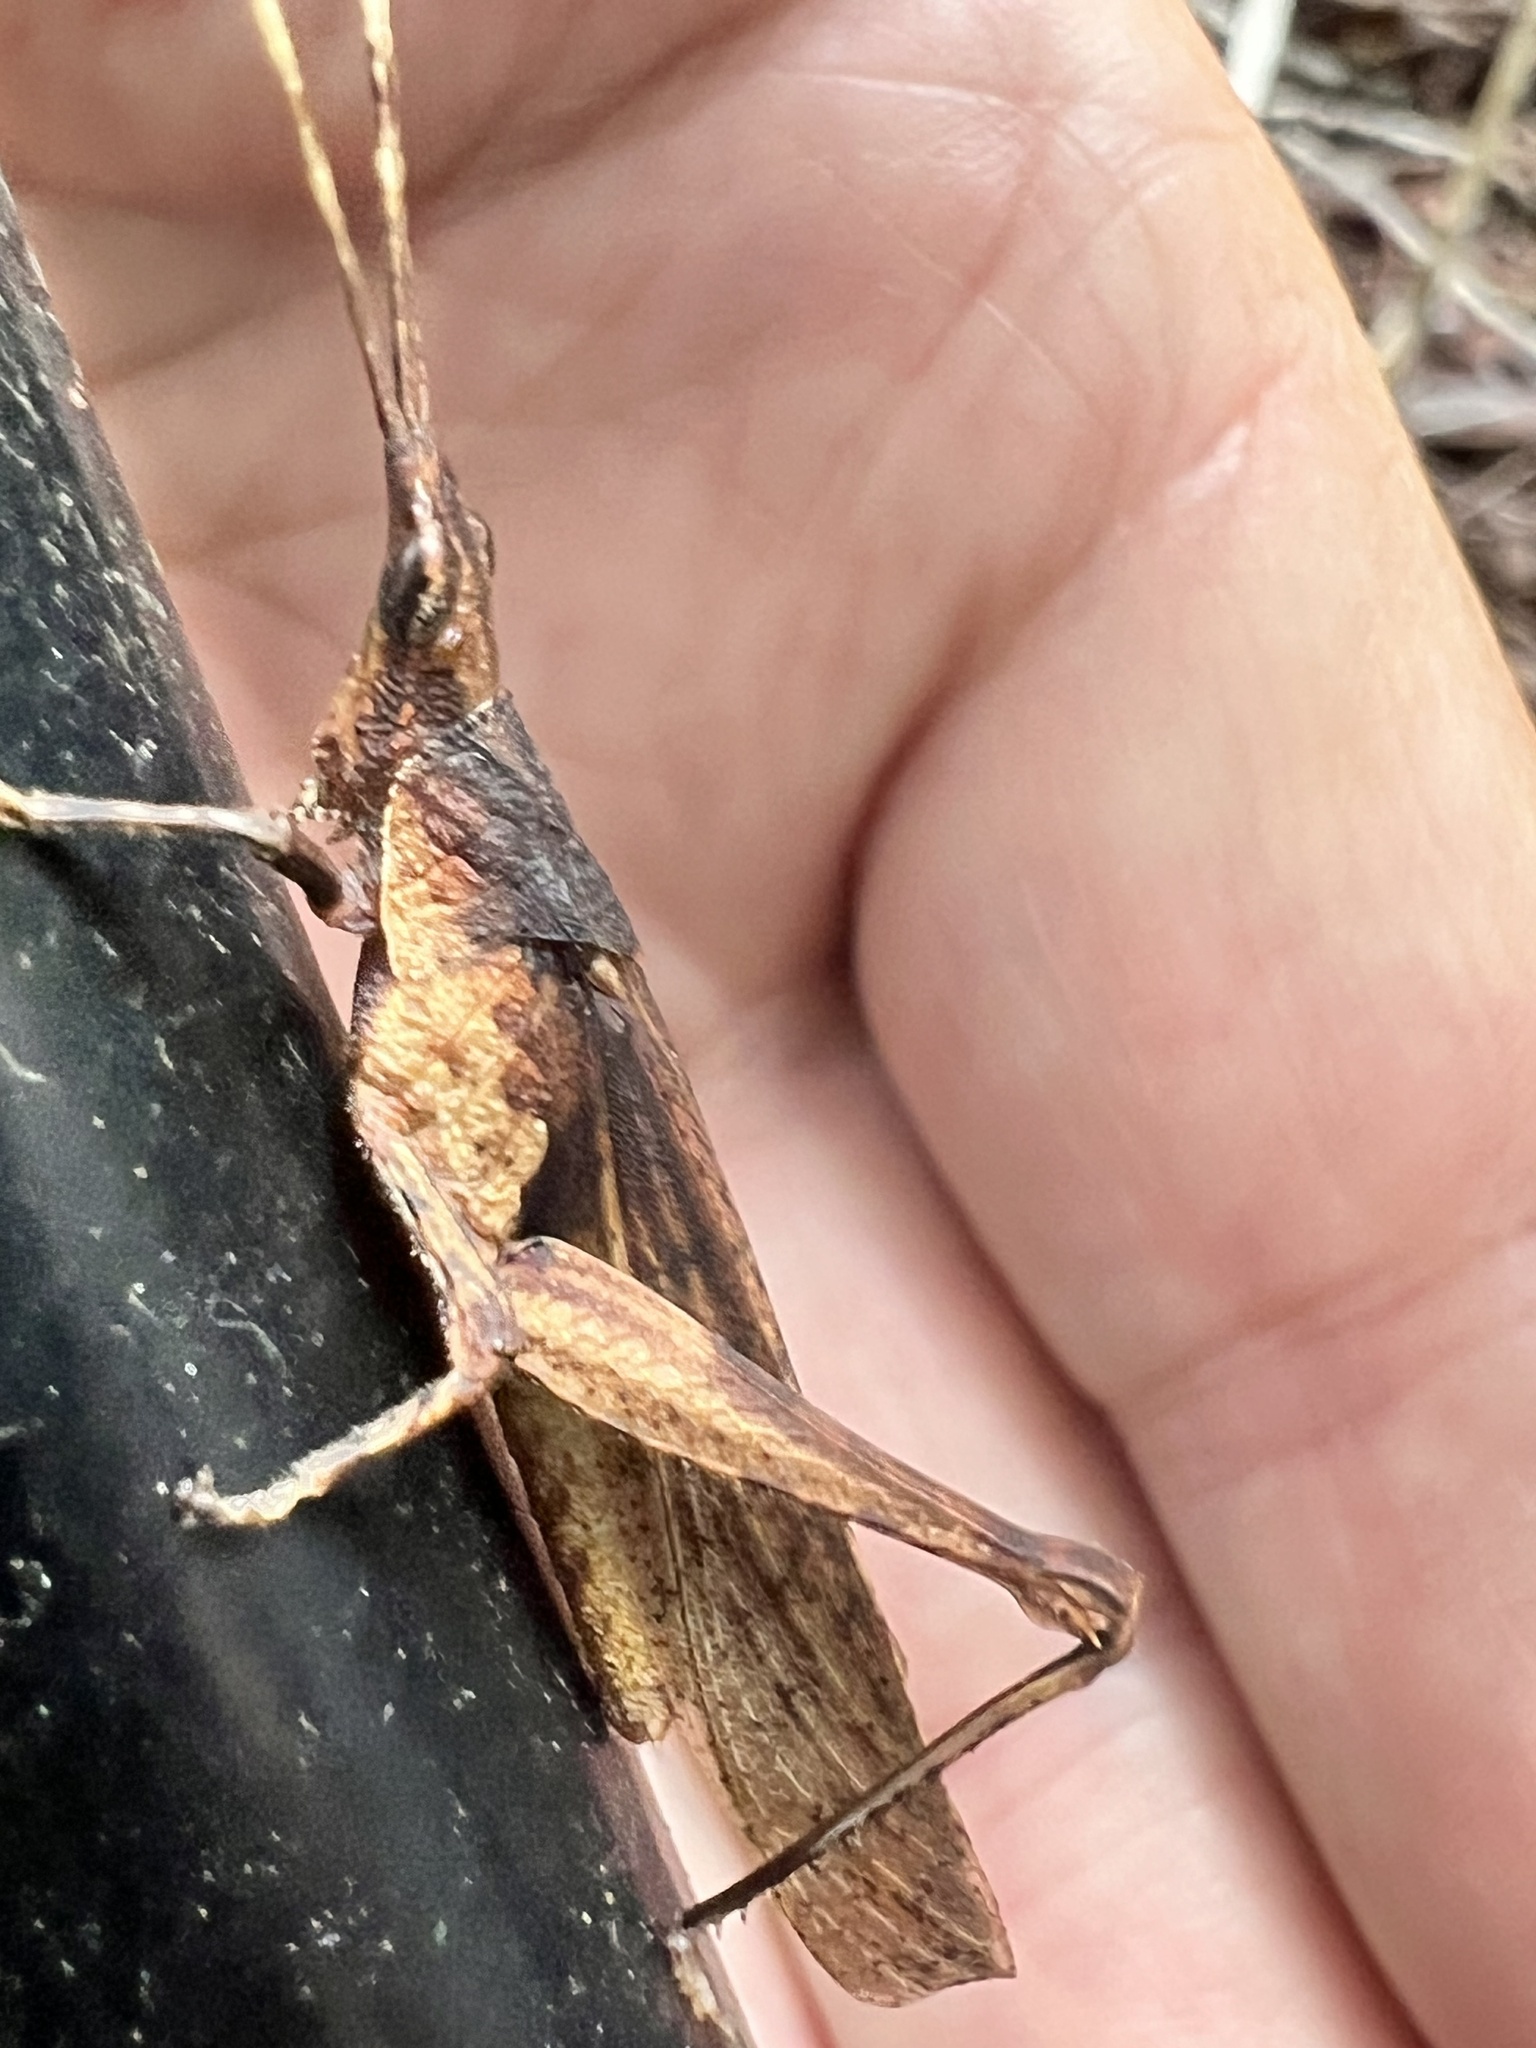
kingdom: Animalia
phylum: Arthropoda
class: Insecta
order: Orthoptera
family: Pyrgomorphidae
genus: Desmoptera
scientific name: Desmoptera truncatipennis
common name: Large forest pyrgomorph
